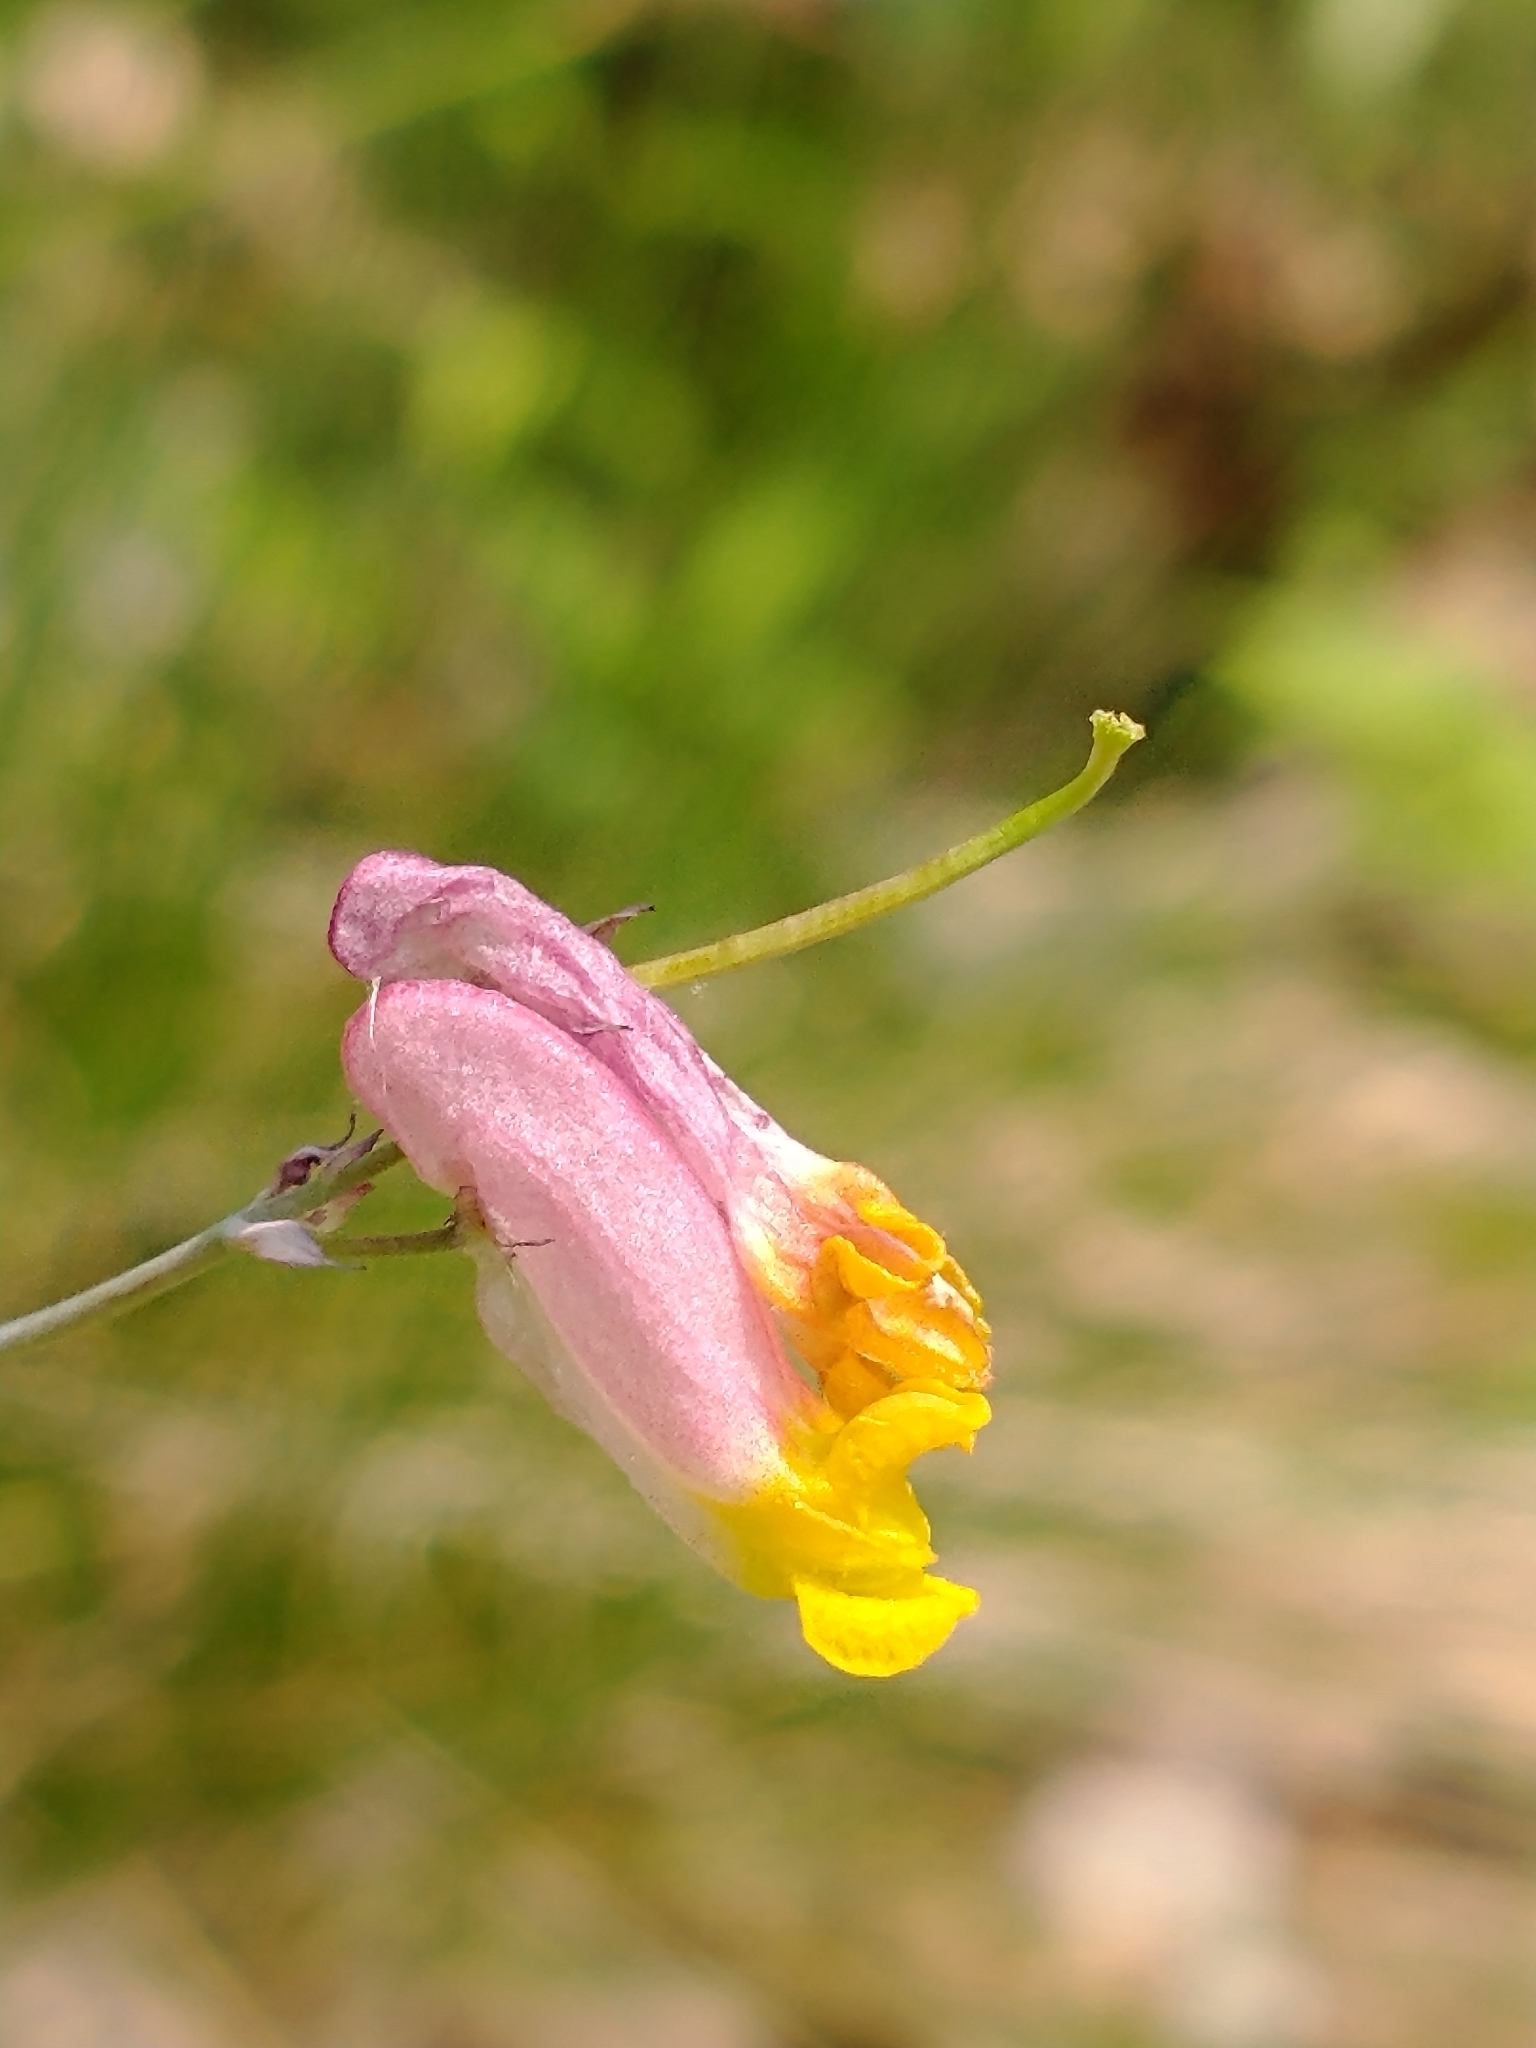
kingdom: Plantae
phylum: Tracheophyta
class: Magnoliopsida
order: Ranunculales
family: Papaveraceae
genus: Capnoides
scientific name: Capnoides sempervirens
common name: Rock harlequin
